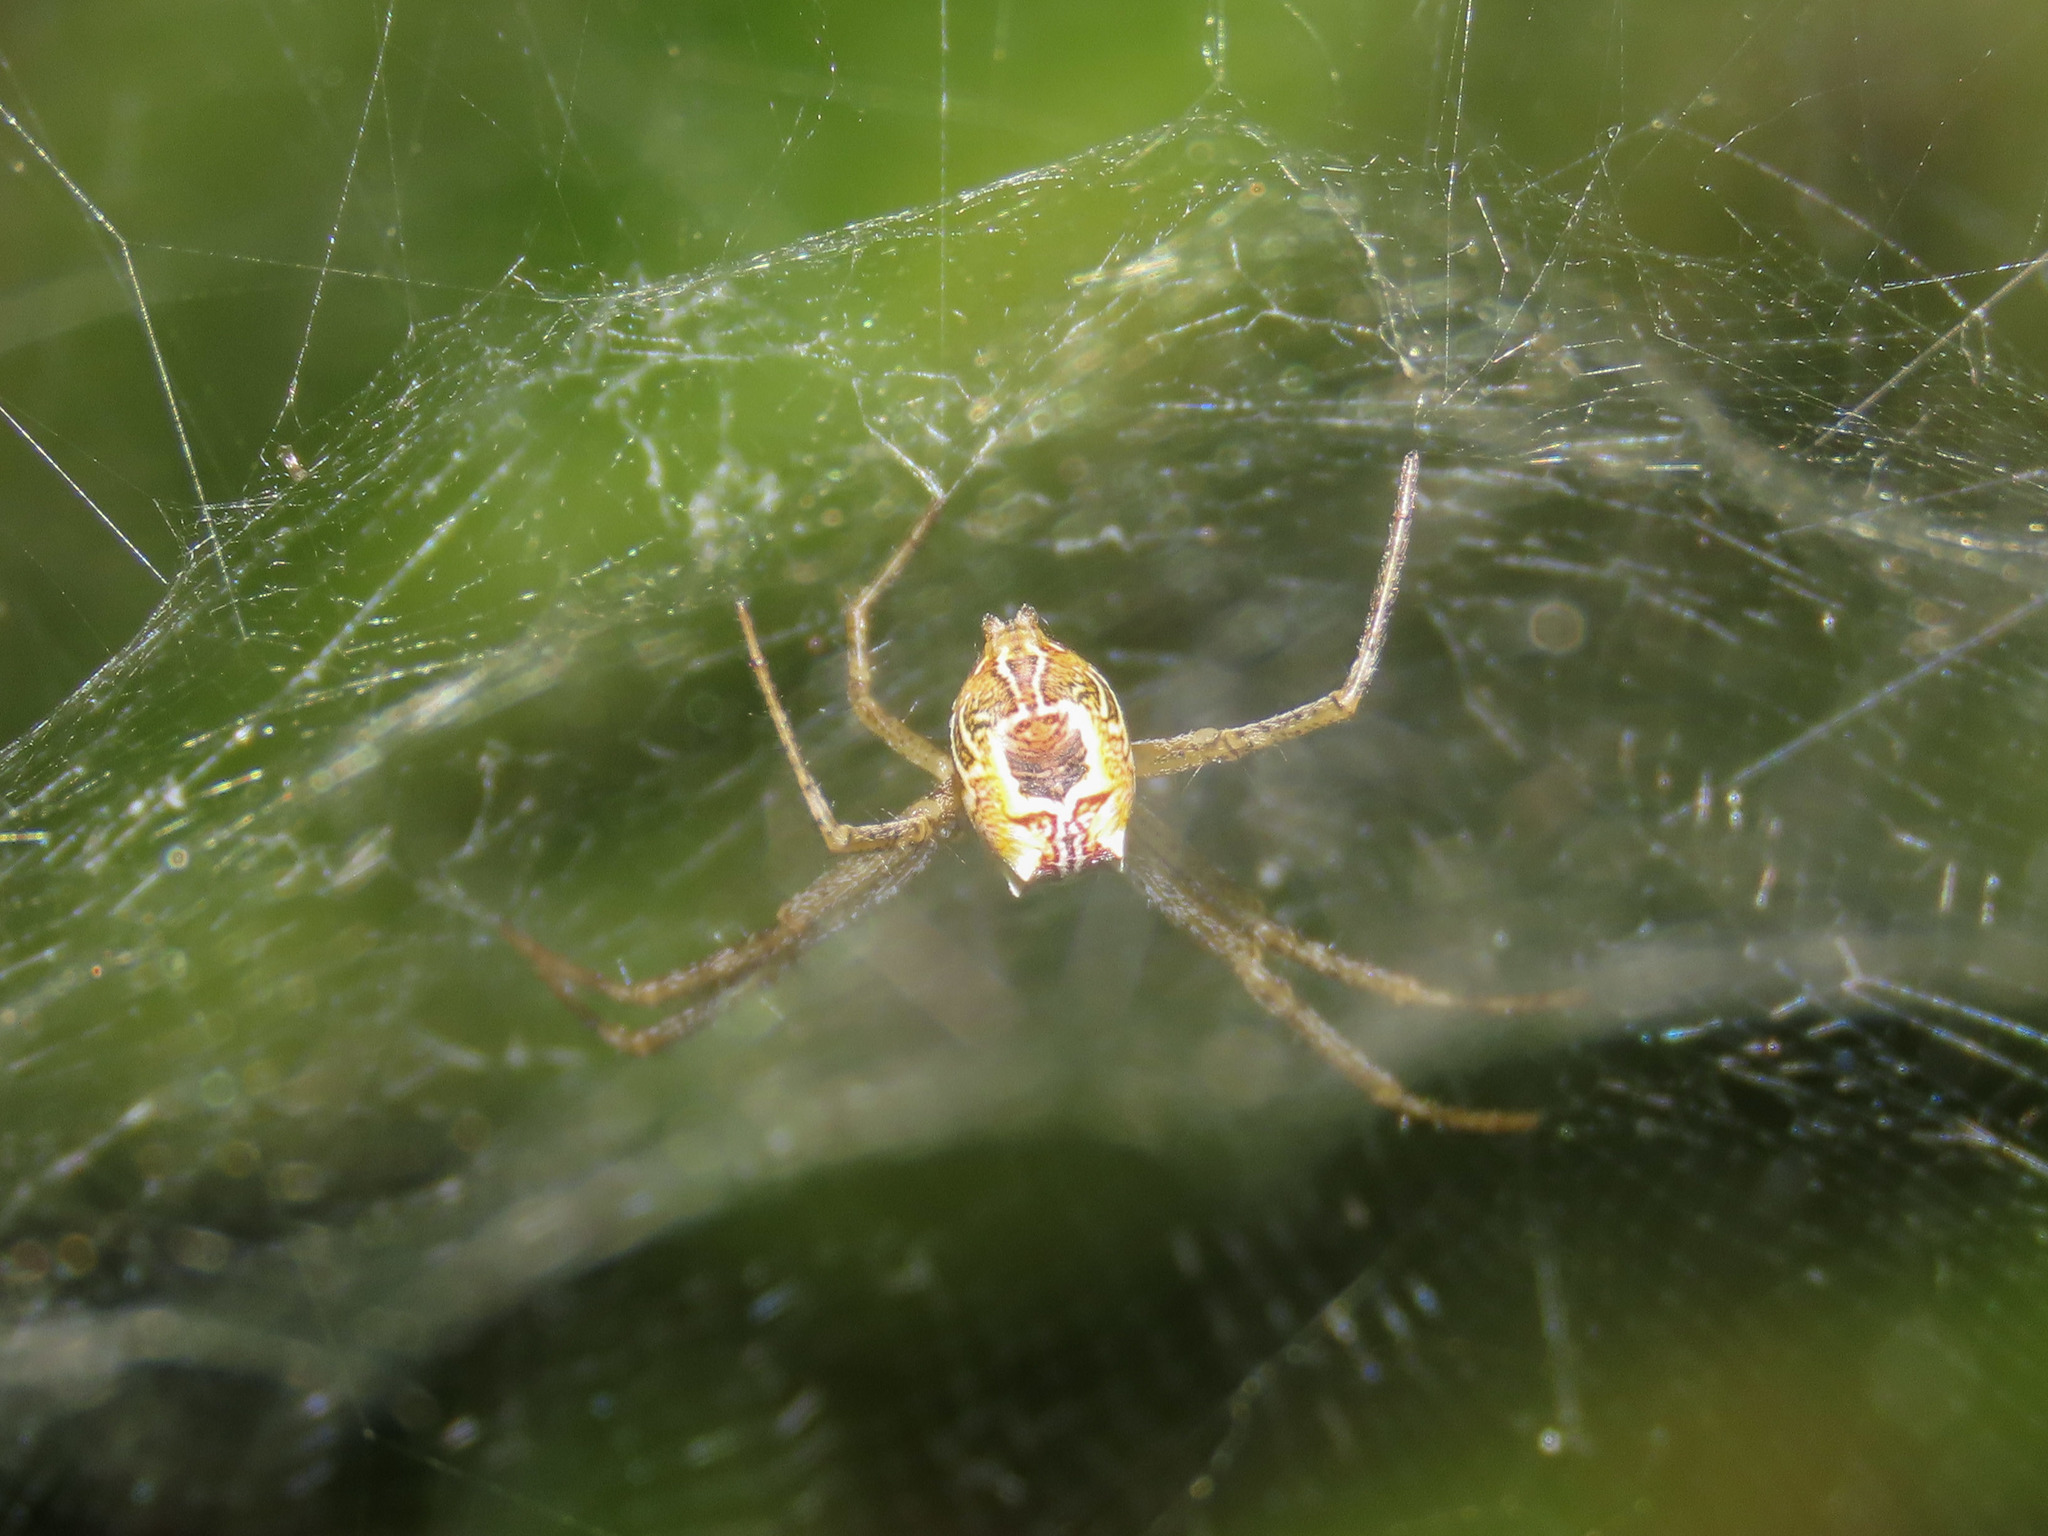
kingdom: Animalia
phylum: Arthropoda
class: Arachnida
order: Araneae
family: Araneidae
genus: Cyrtophora
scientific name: Cyrtophora cicatrosa
